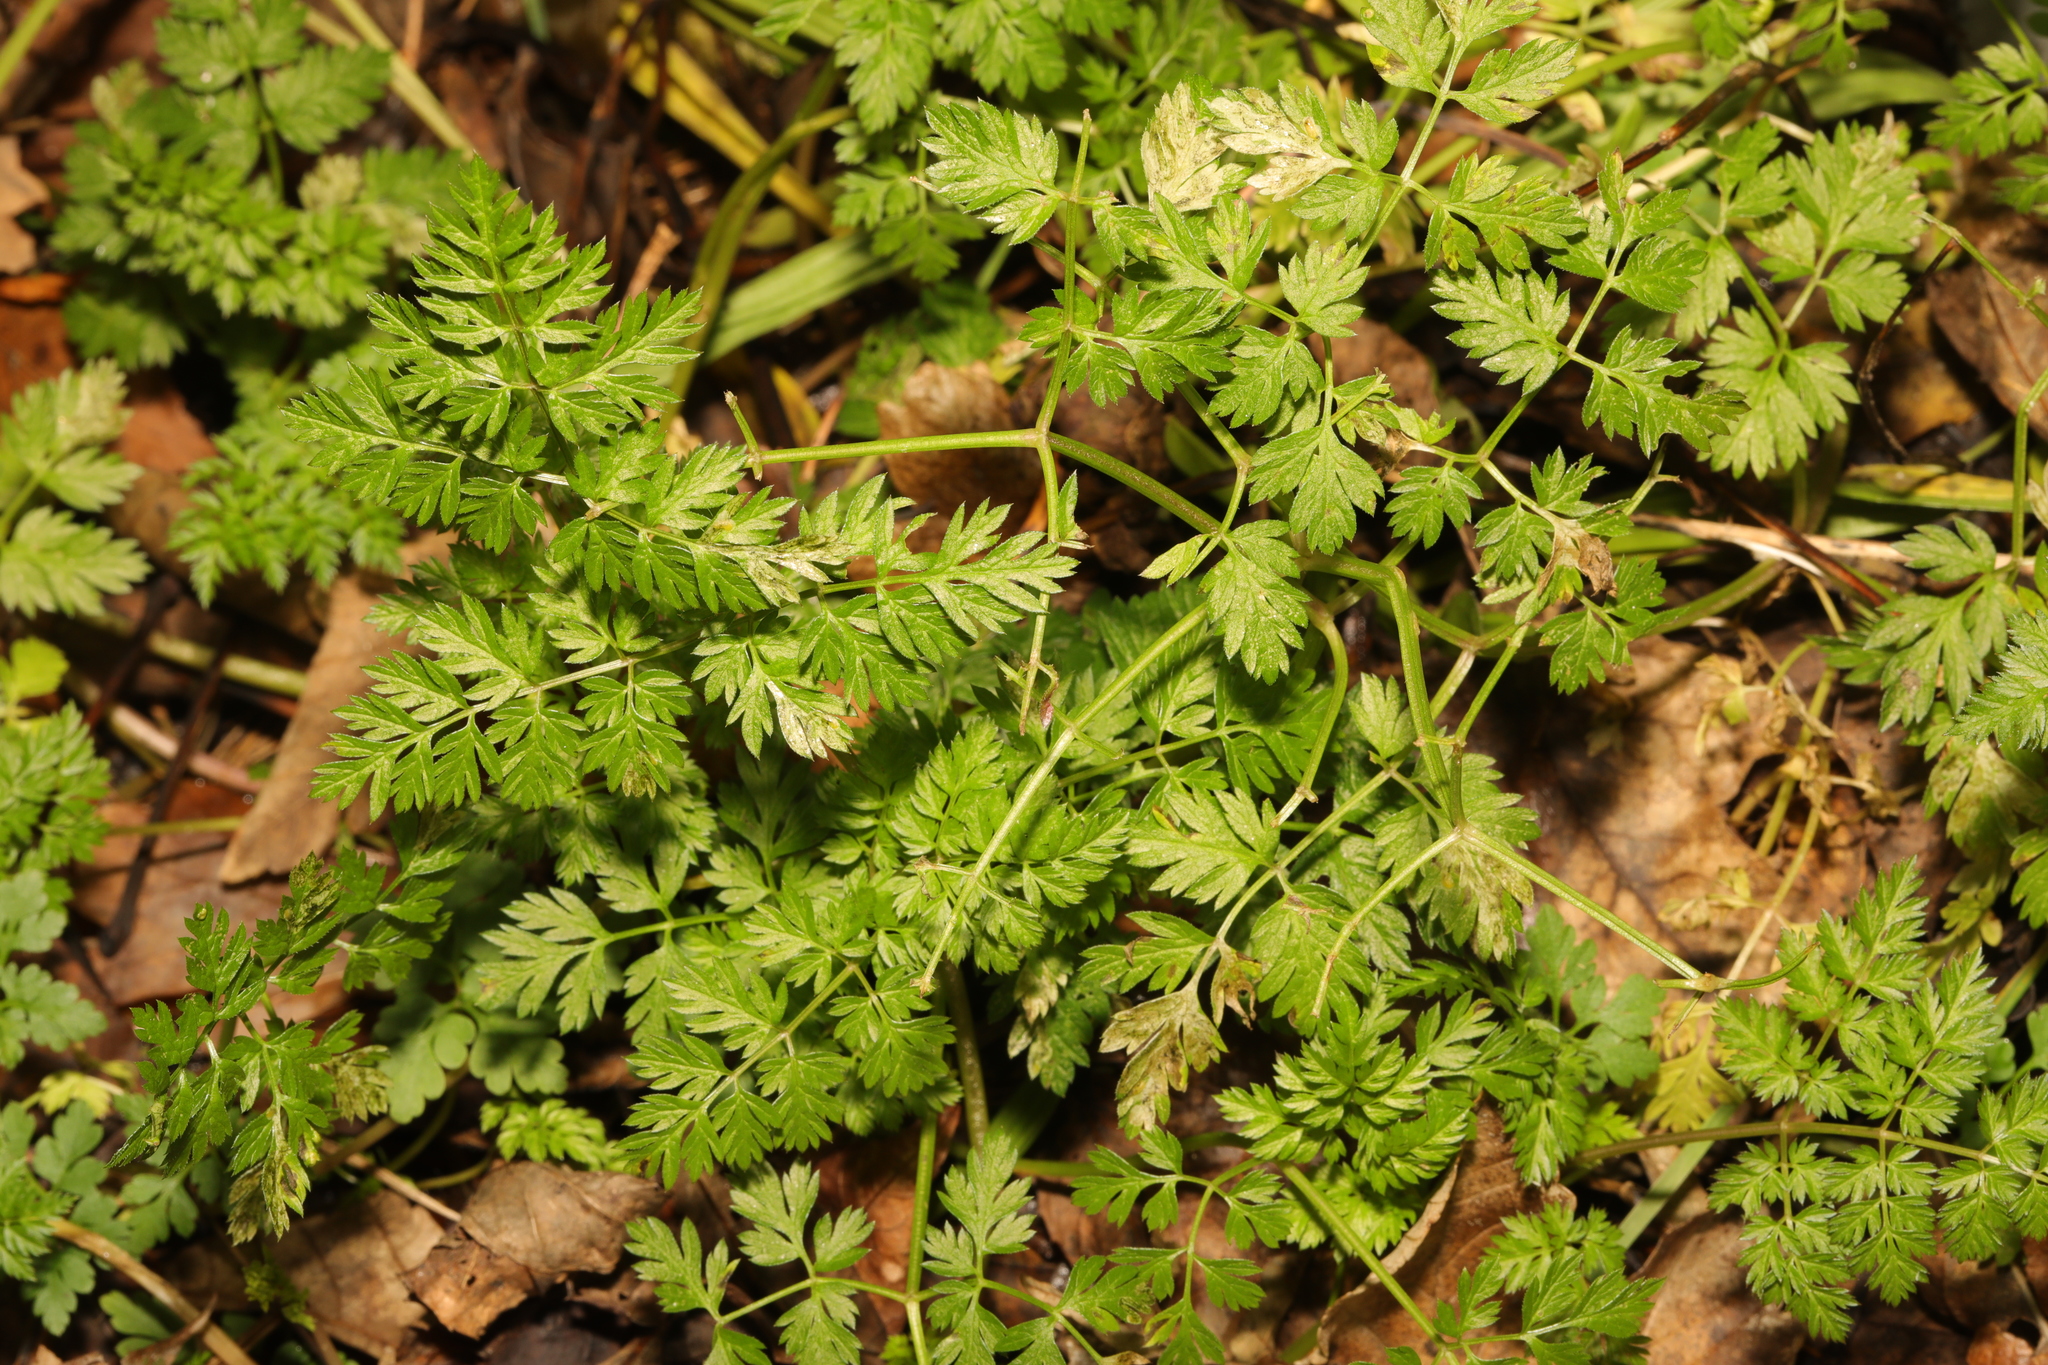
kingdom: Plantae
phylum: Tracheophyta
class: Magnoliopsida
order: Apiales
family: Apiaceae
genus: Anthriscus
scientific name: Anthriscus sylvestris
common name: Cow parsley
